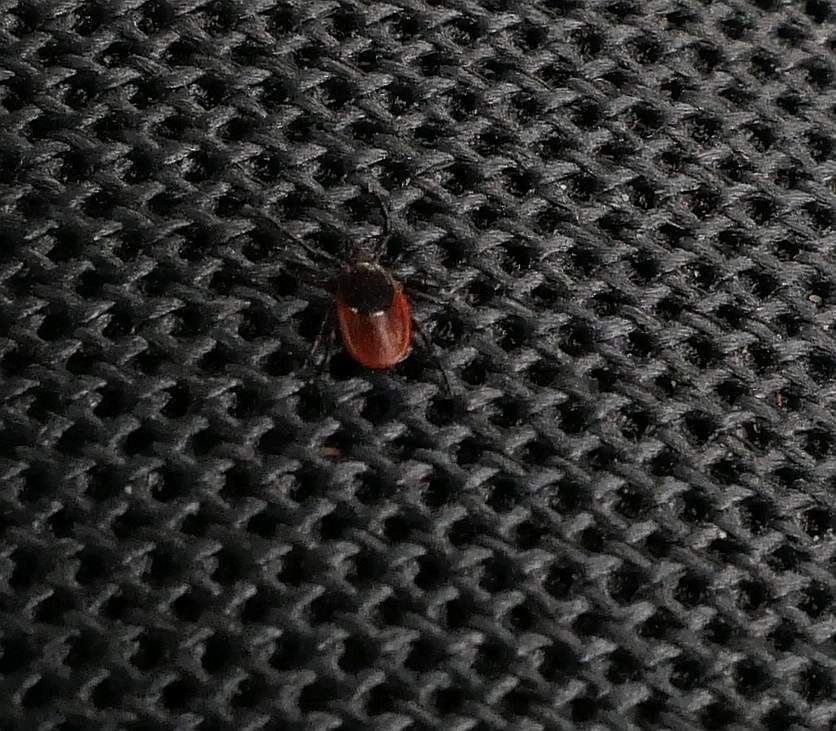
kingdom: Animalia
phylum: Arthropoda
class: Arachnida
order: Ixodida
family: Ixodidae
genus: Ixodes
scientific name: Ixodes scapularis
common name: Black legged tick
